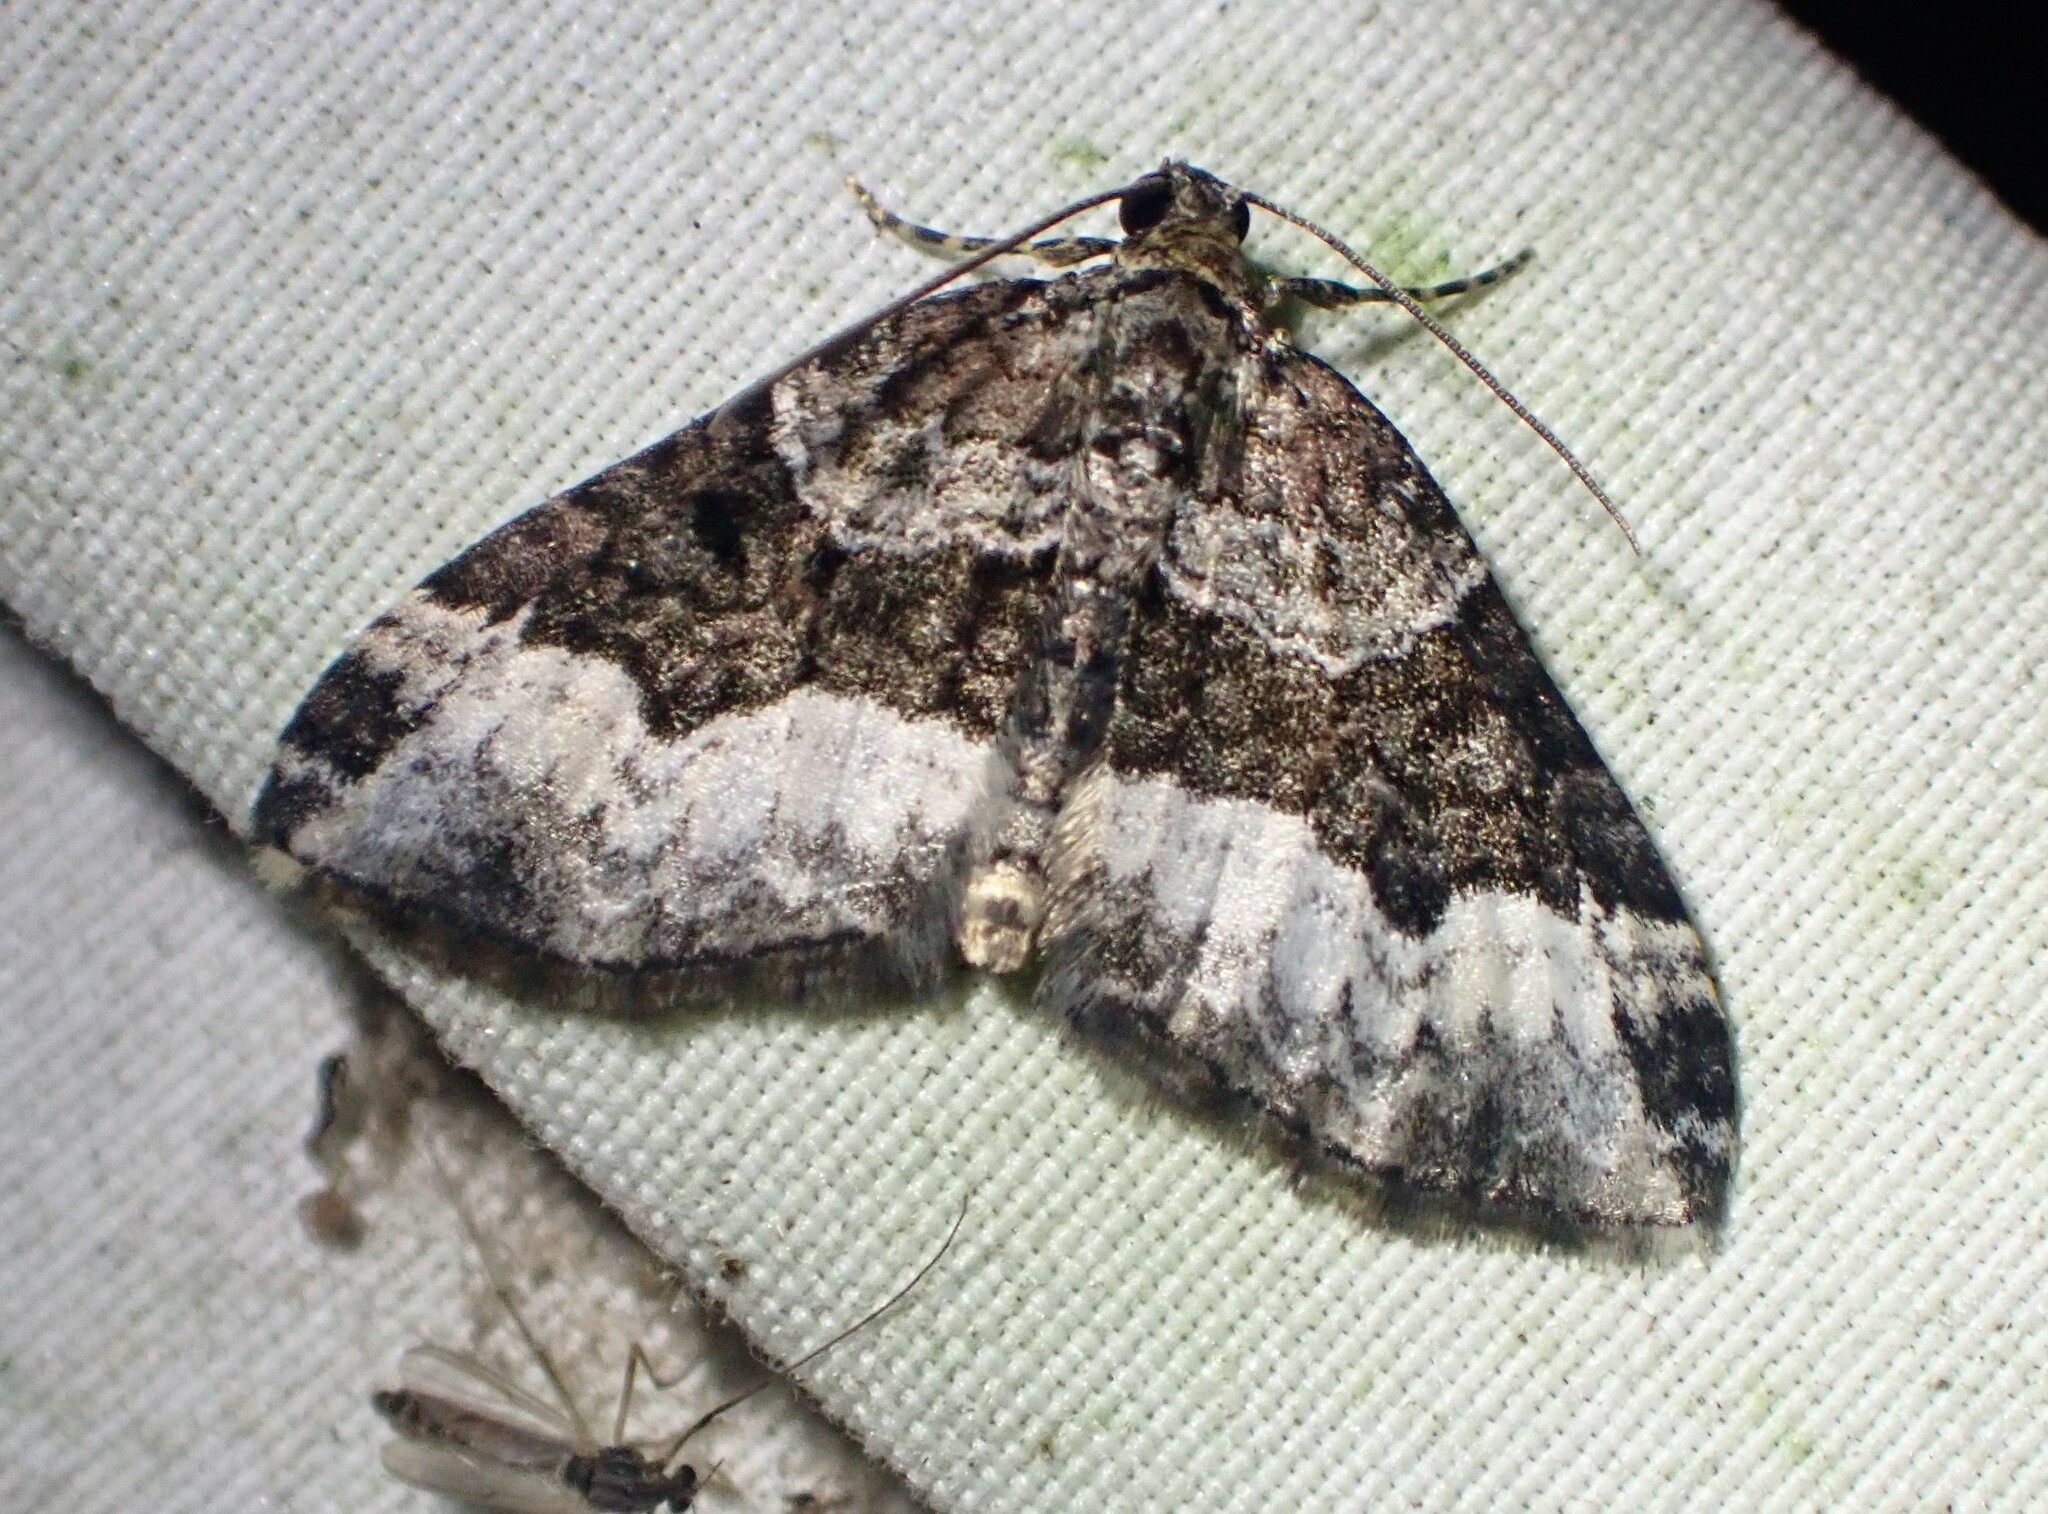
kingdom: Animalia
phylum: Arthropoda
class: Insecta
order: Lepidoptera
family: Geometridae
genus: Euphyia
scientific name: Euphyia intermediata
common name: Sharp-angled carpet
